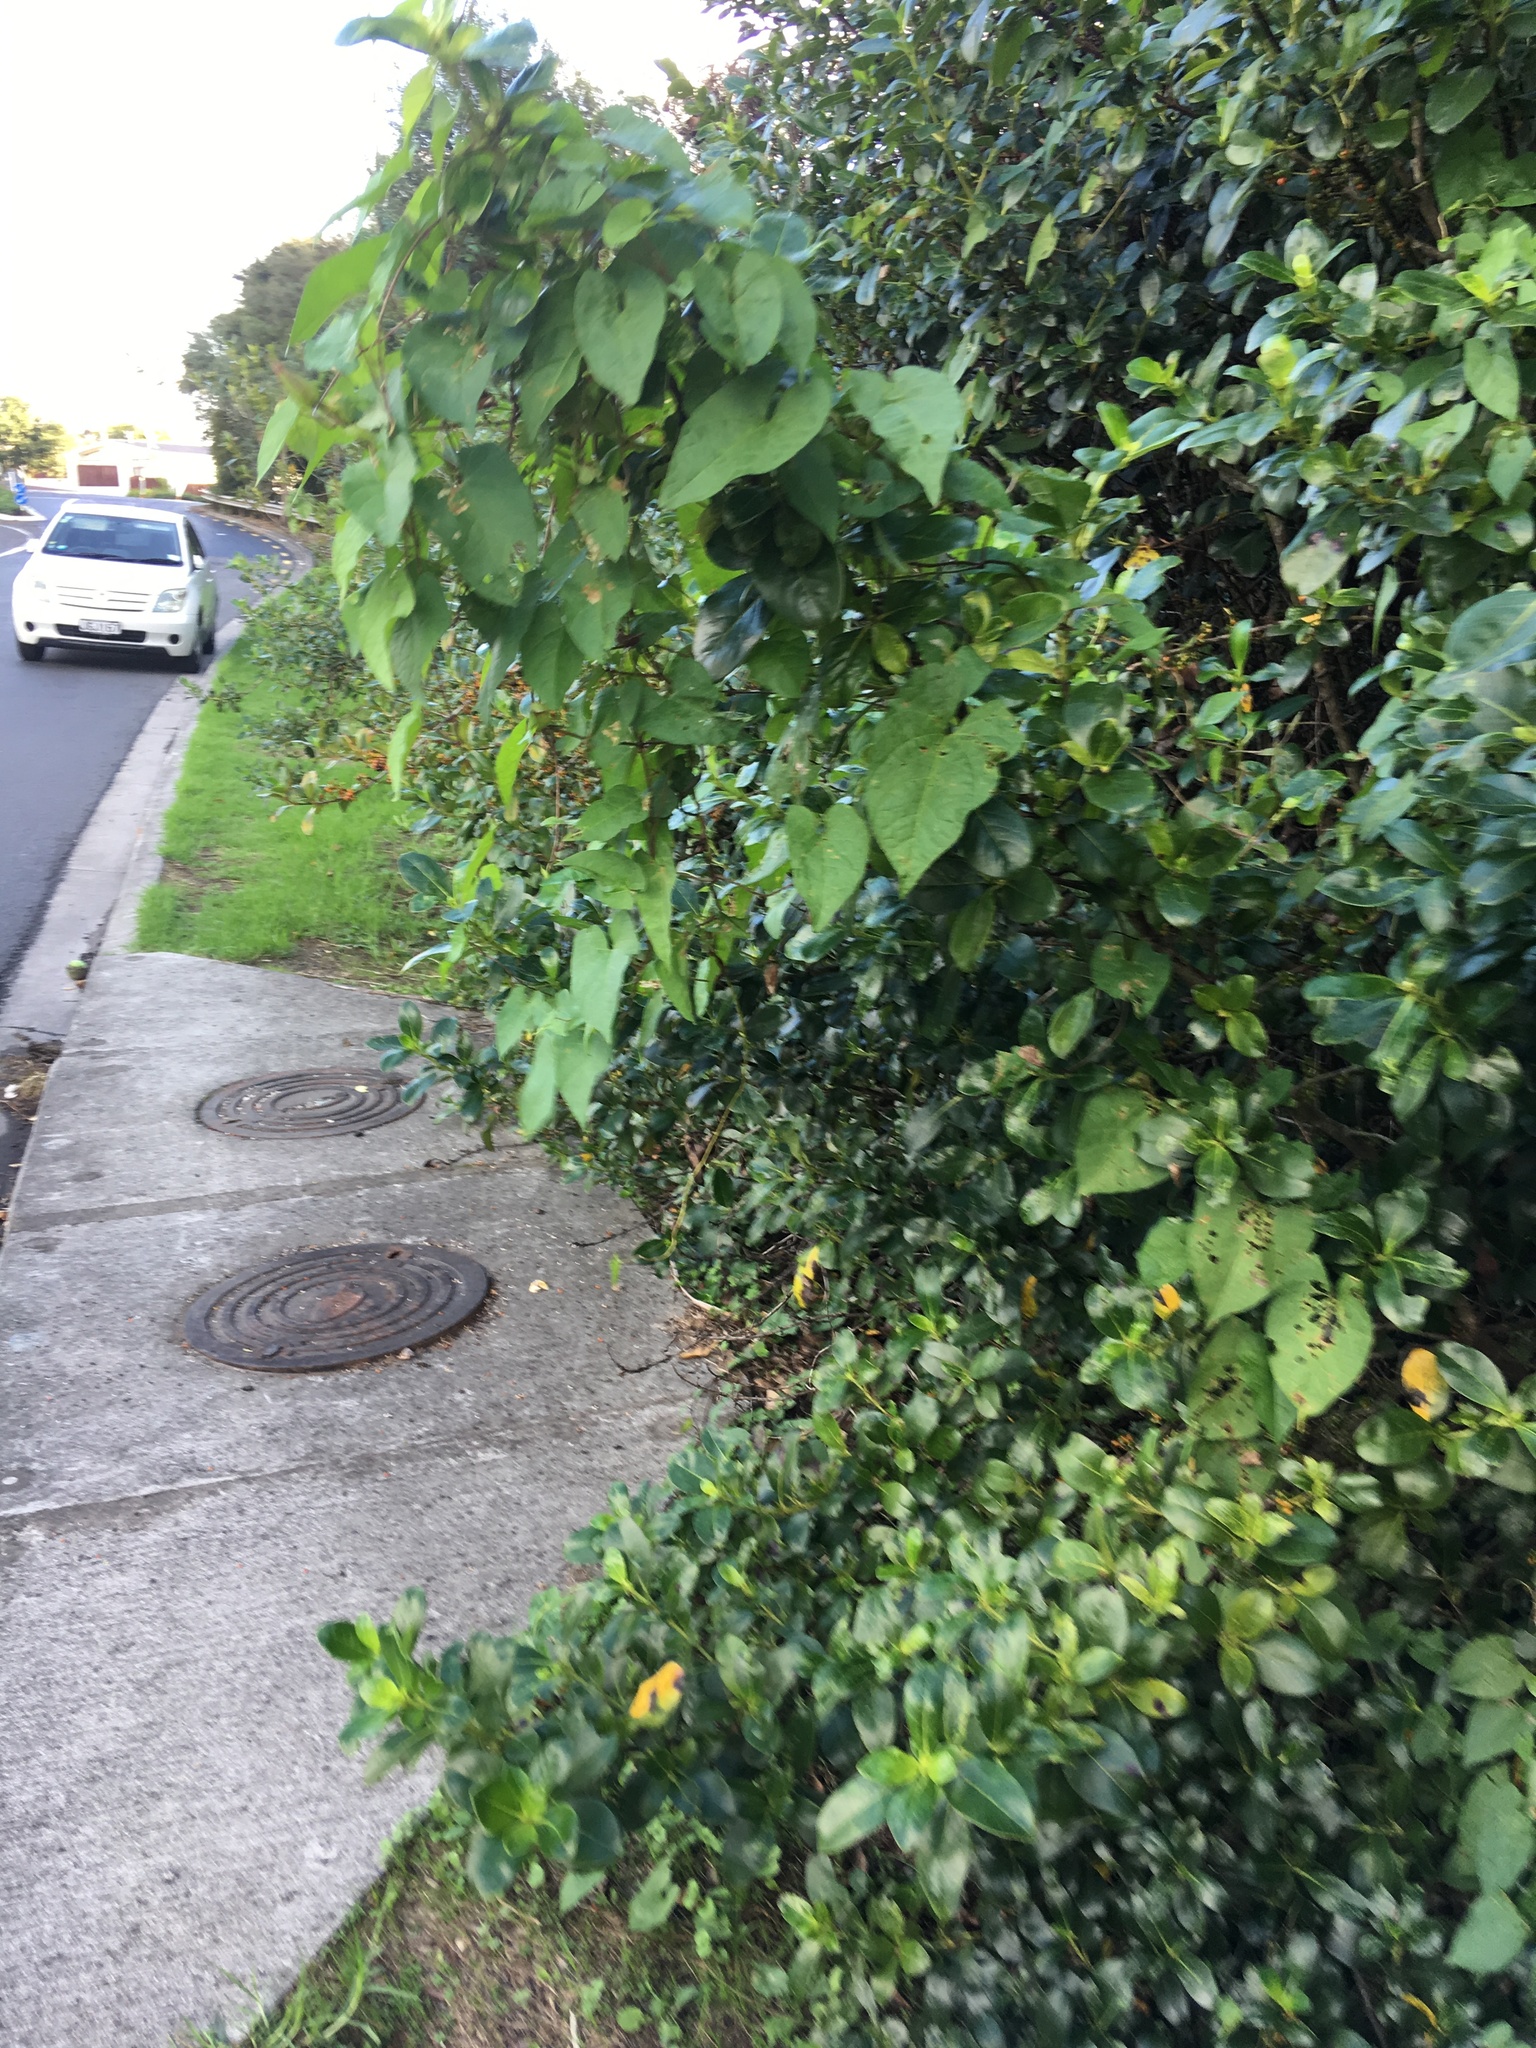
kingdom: Plantae
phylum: Tracheophyta
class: Magnoliopsida
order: Solanales
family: Convolvulaceae
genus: Calystegia
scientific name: Calystegia silvatica
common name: Large bindweed
